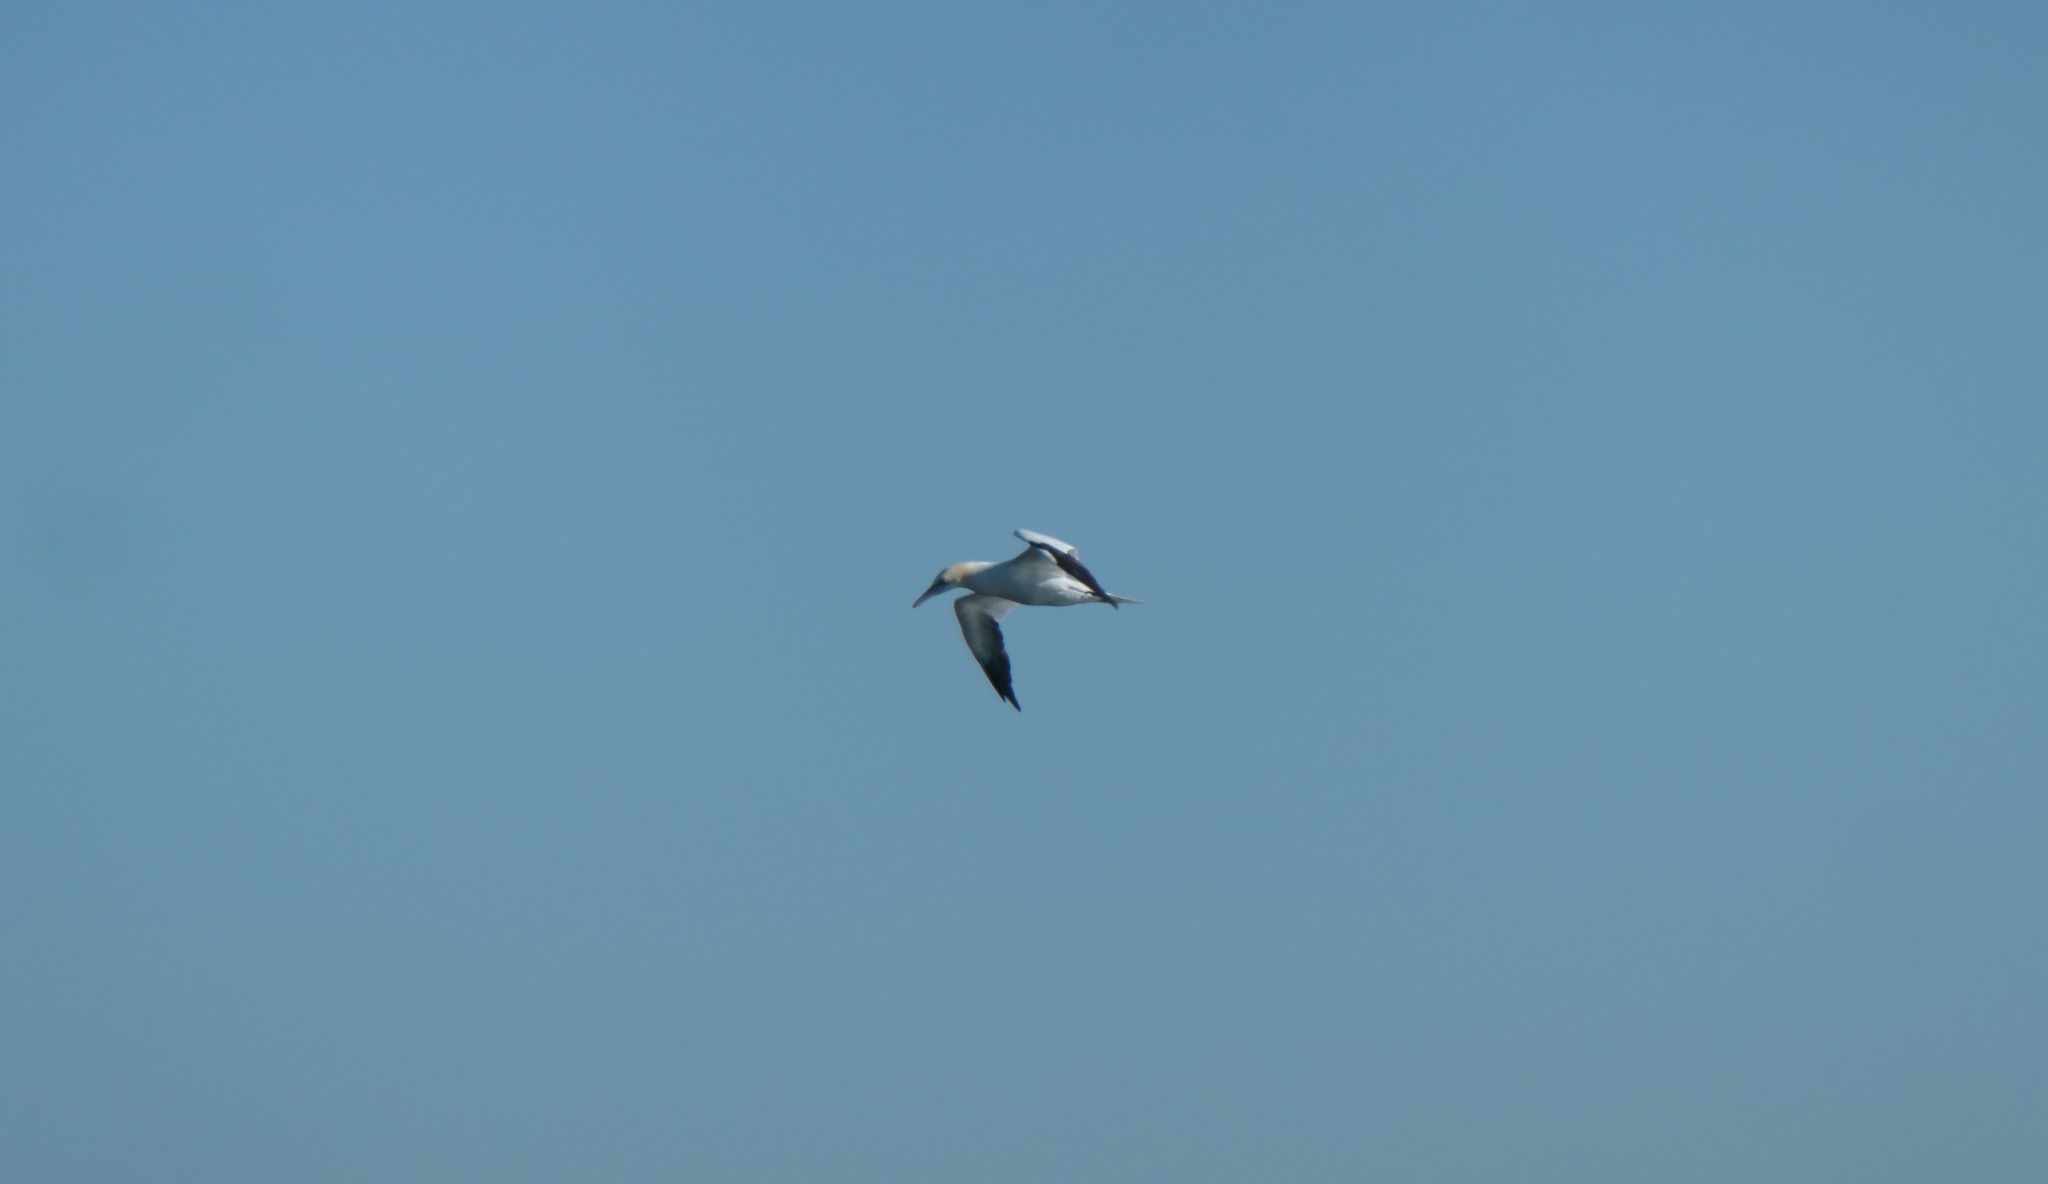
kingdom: Animalia
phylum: Chordata
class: Aves
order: Suliformes
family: Sulidae
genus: Morus
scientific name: Morus bassanus
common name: Northern gannet
